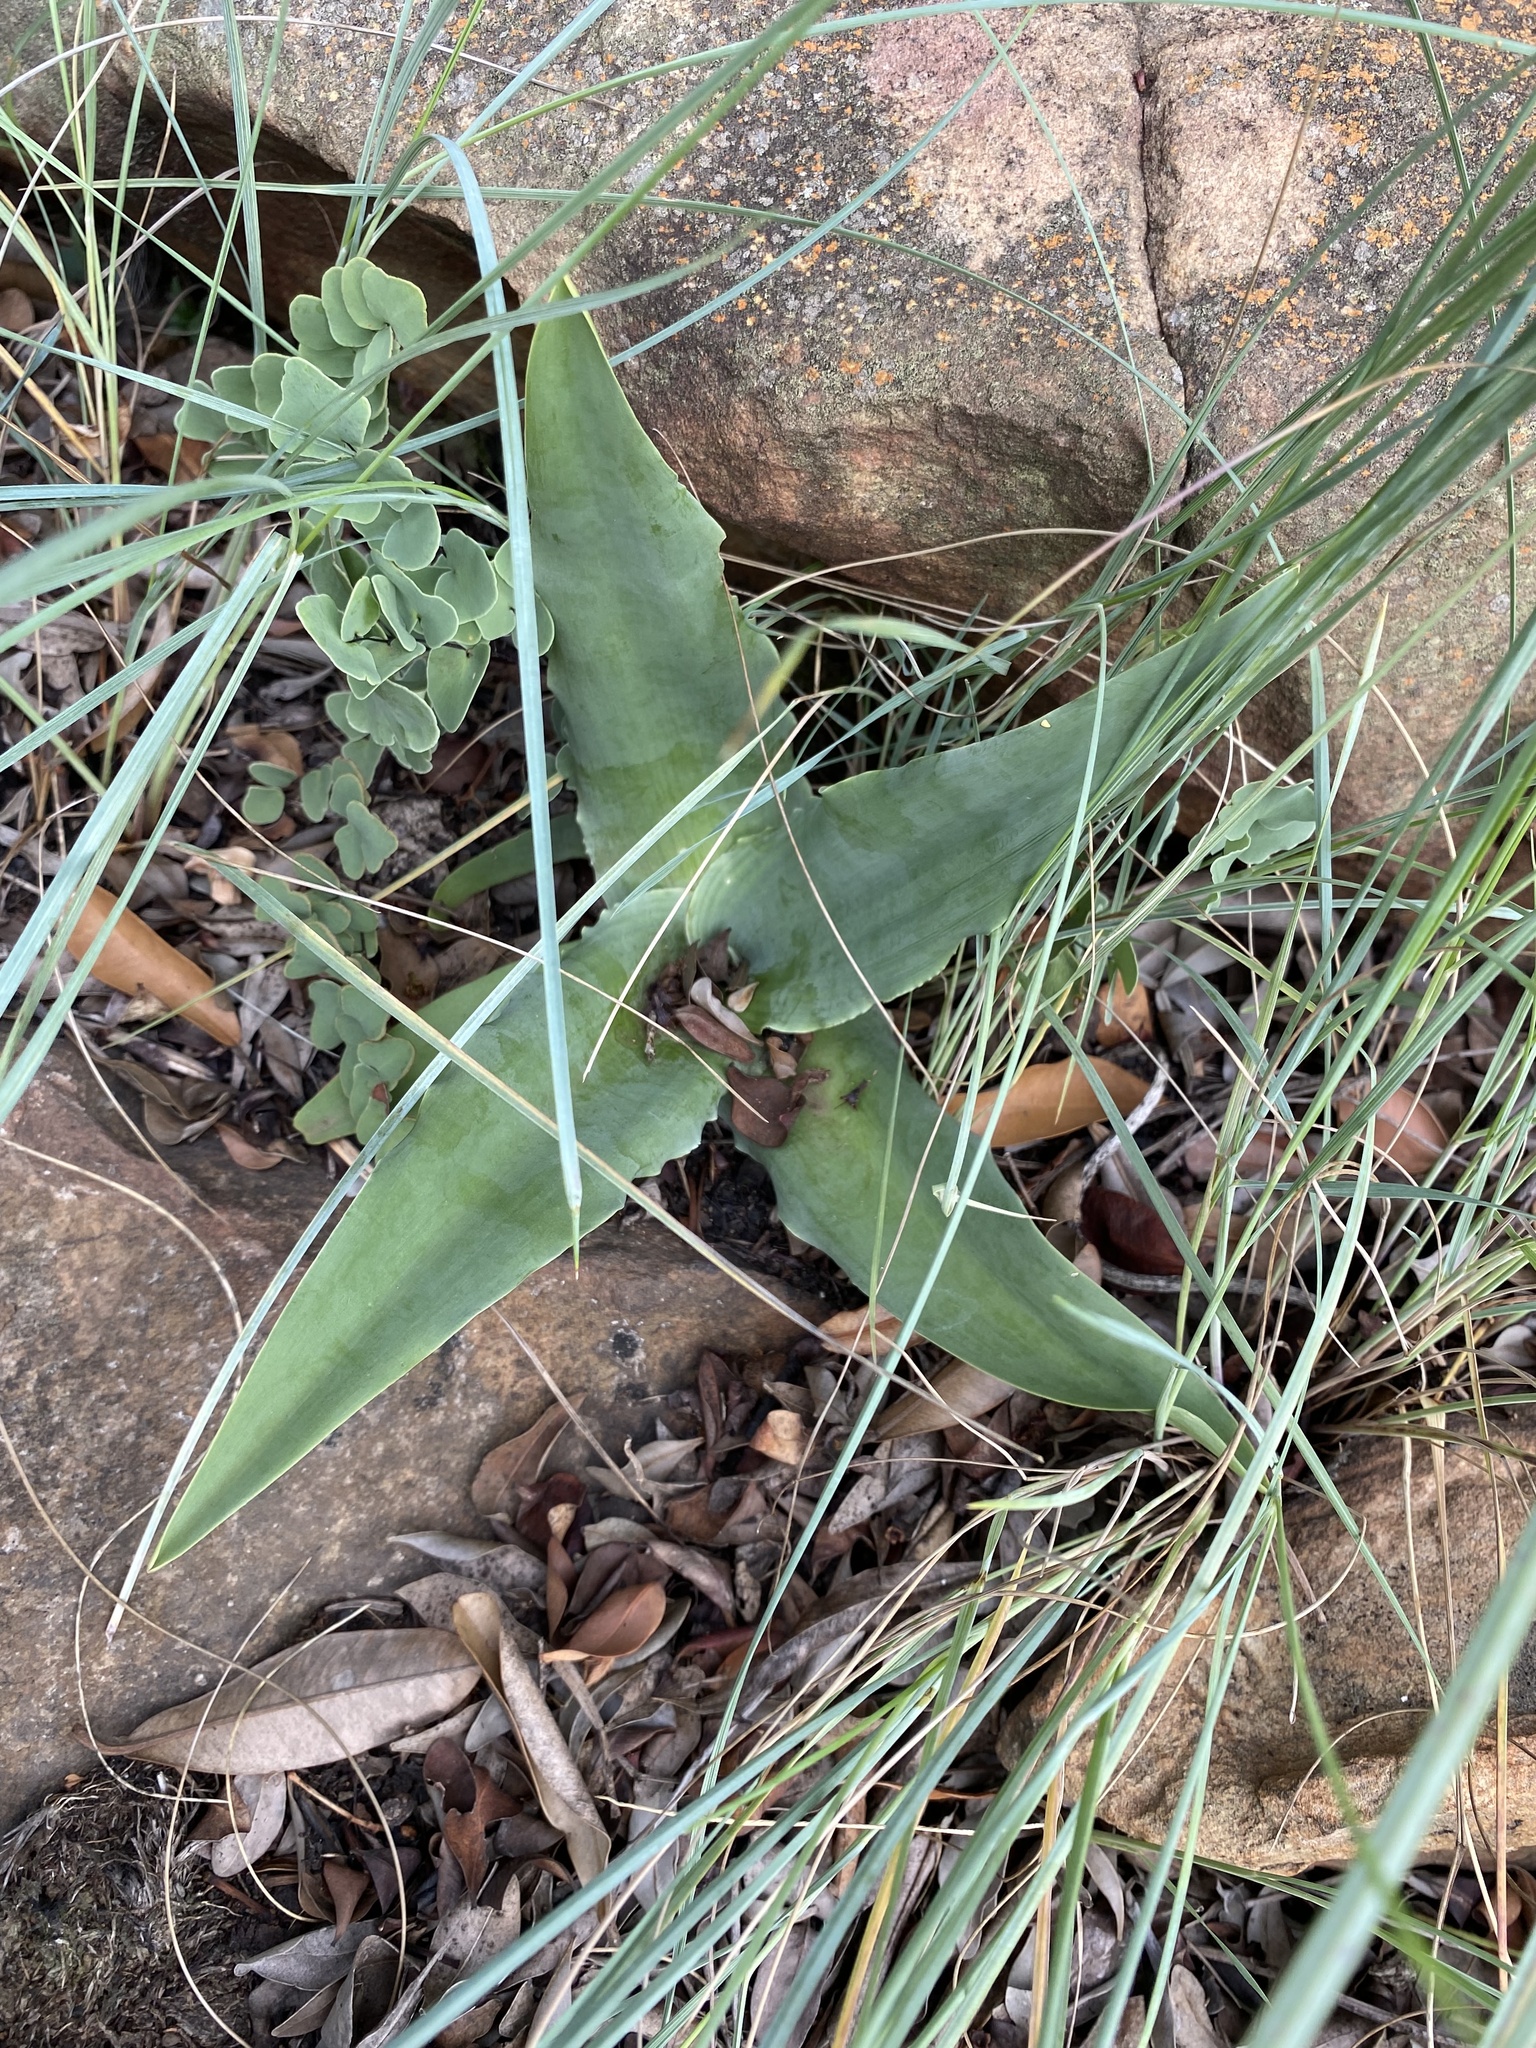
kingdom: Plantae
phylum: Tracheophyta
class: Liliopsida
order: Asparagales
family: Asparagaceae
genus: Ledebouria
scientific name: Ledebouria asperifolia
